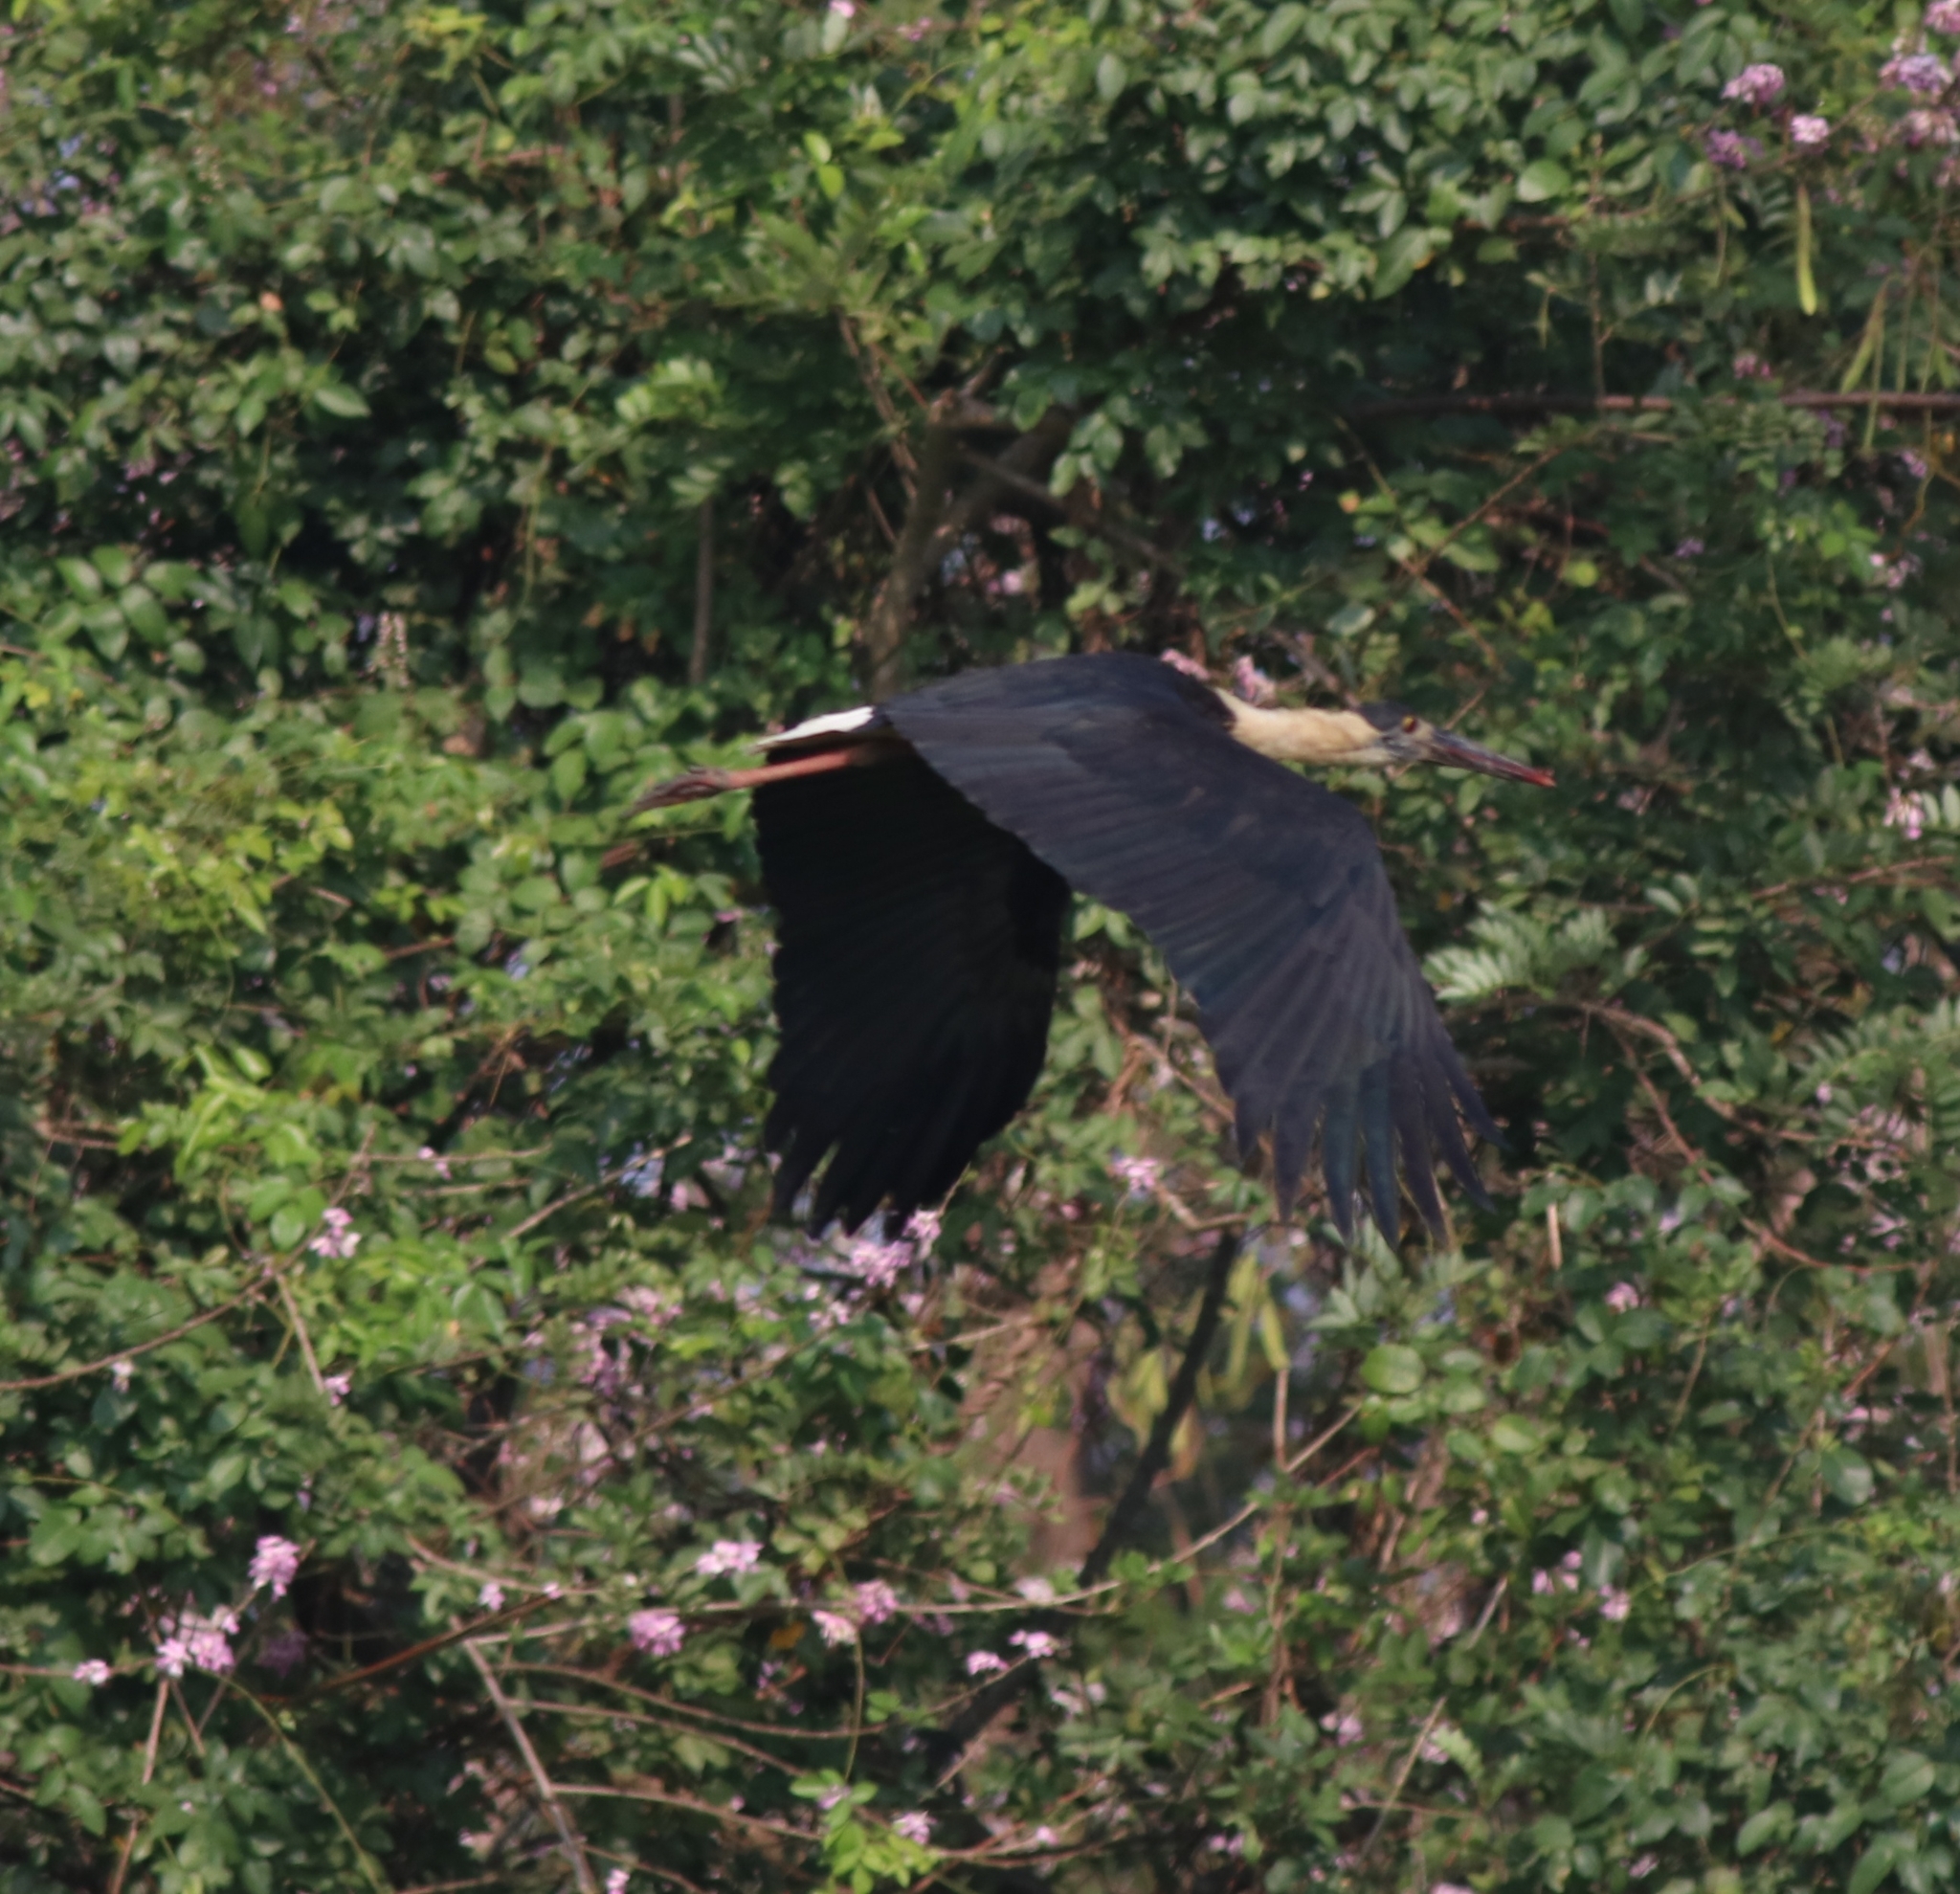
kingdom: Animalia
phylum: Chordata
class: Aves
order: Ciconiiformes
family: Ciconiidae
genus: Ciconia
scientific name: Ciconia episcopus
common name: Woolly-necked stork
